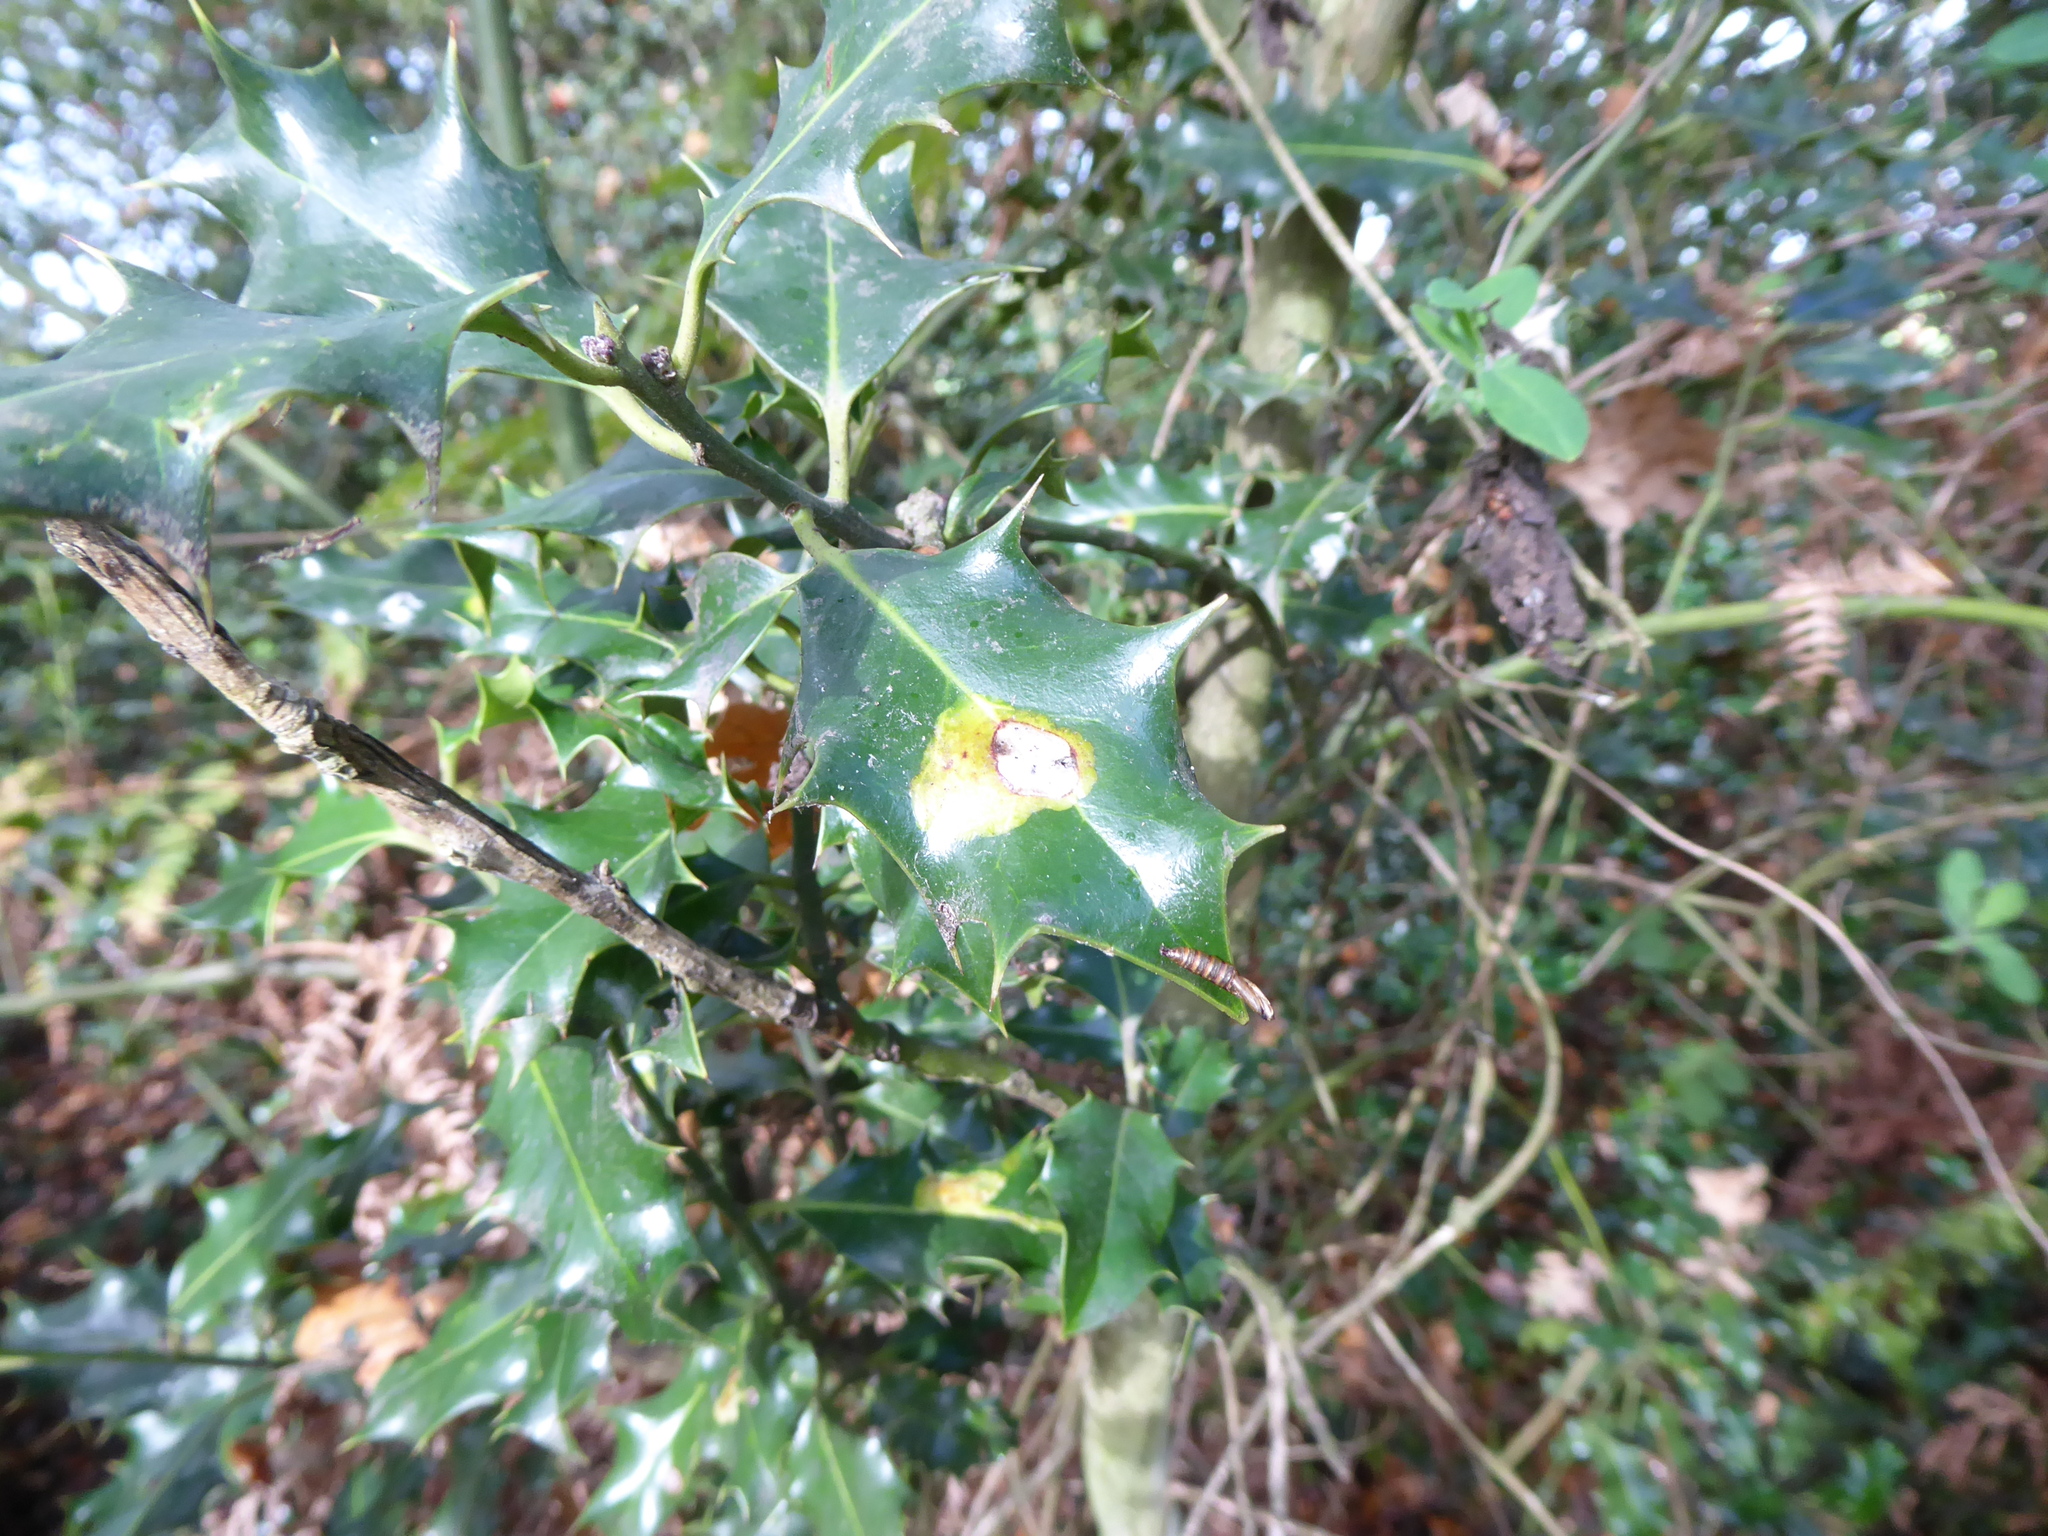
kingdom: Animalia
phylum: Arthropoda
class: Insecta
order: Diptera
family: Agromyzidae
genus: Phytomyza
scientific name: Phytomyza ilicis
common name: Holly leafminer
